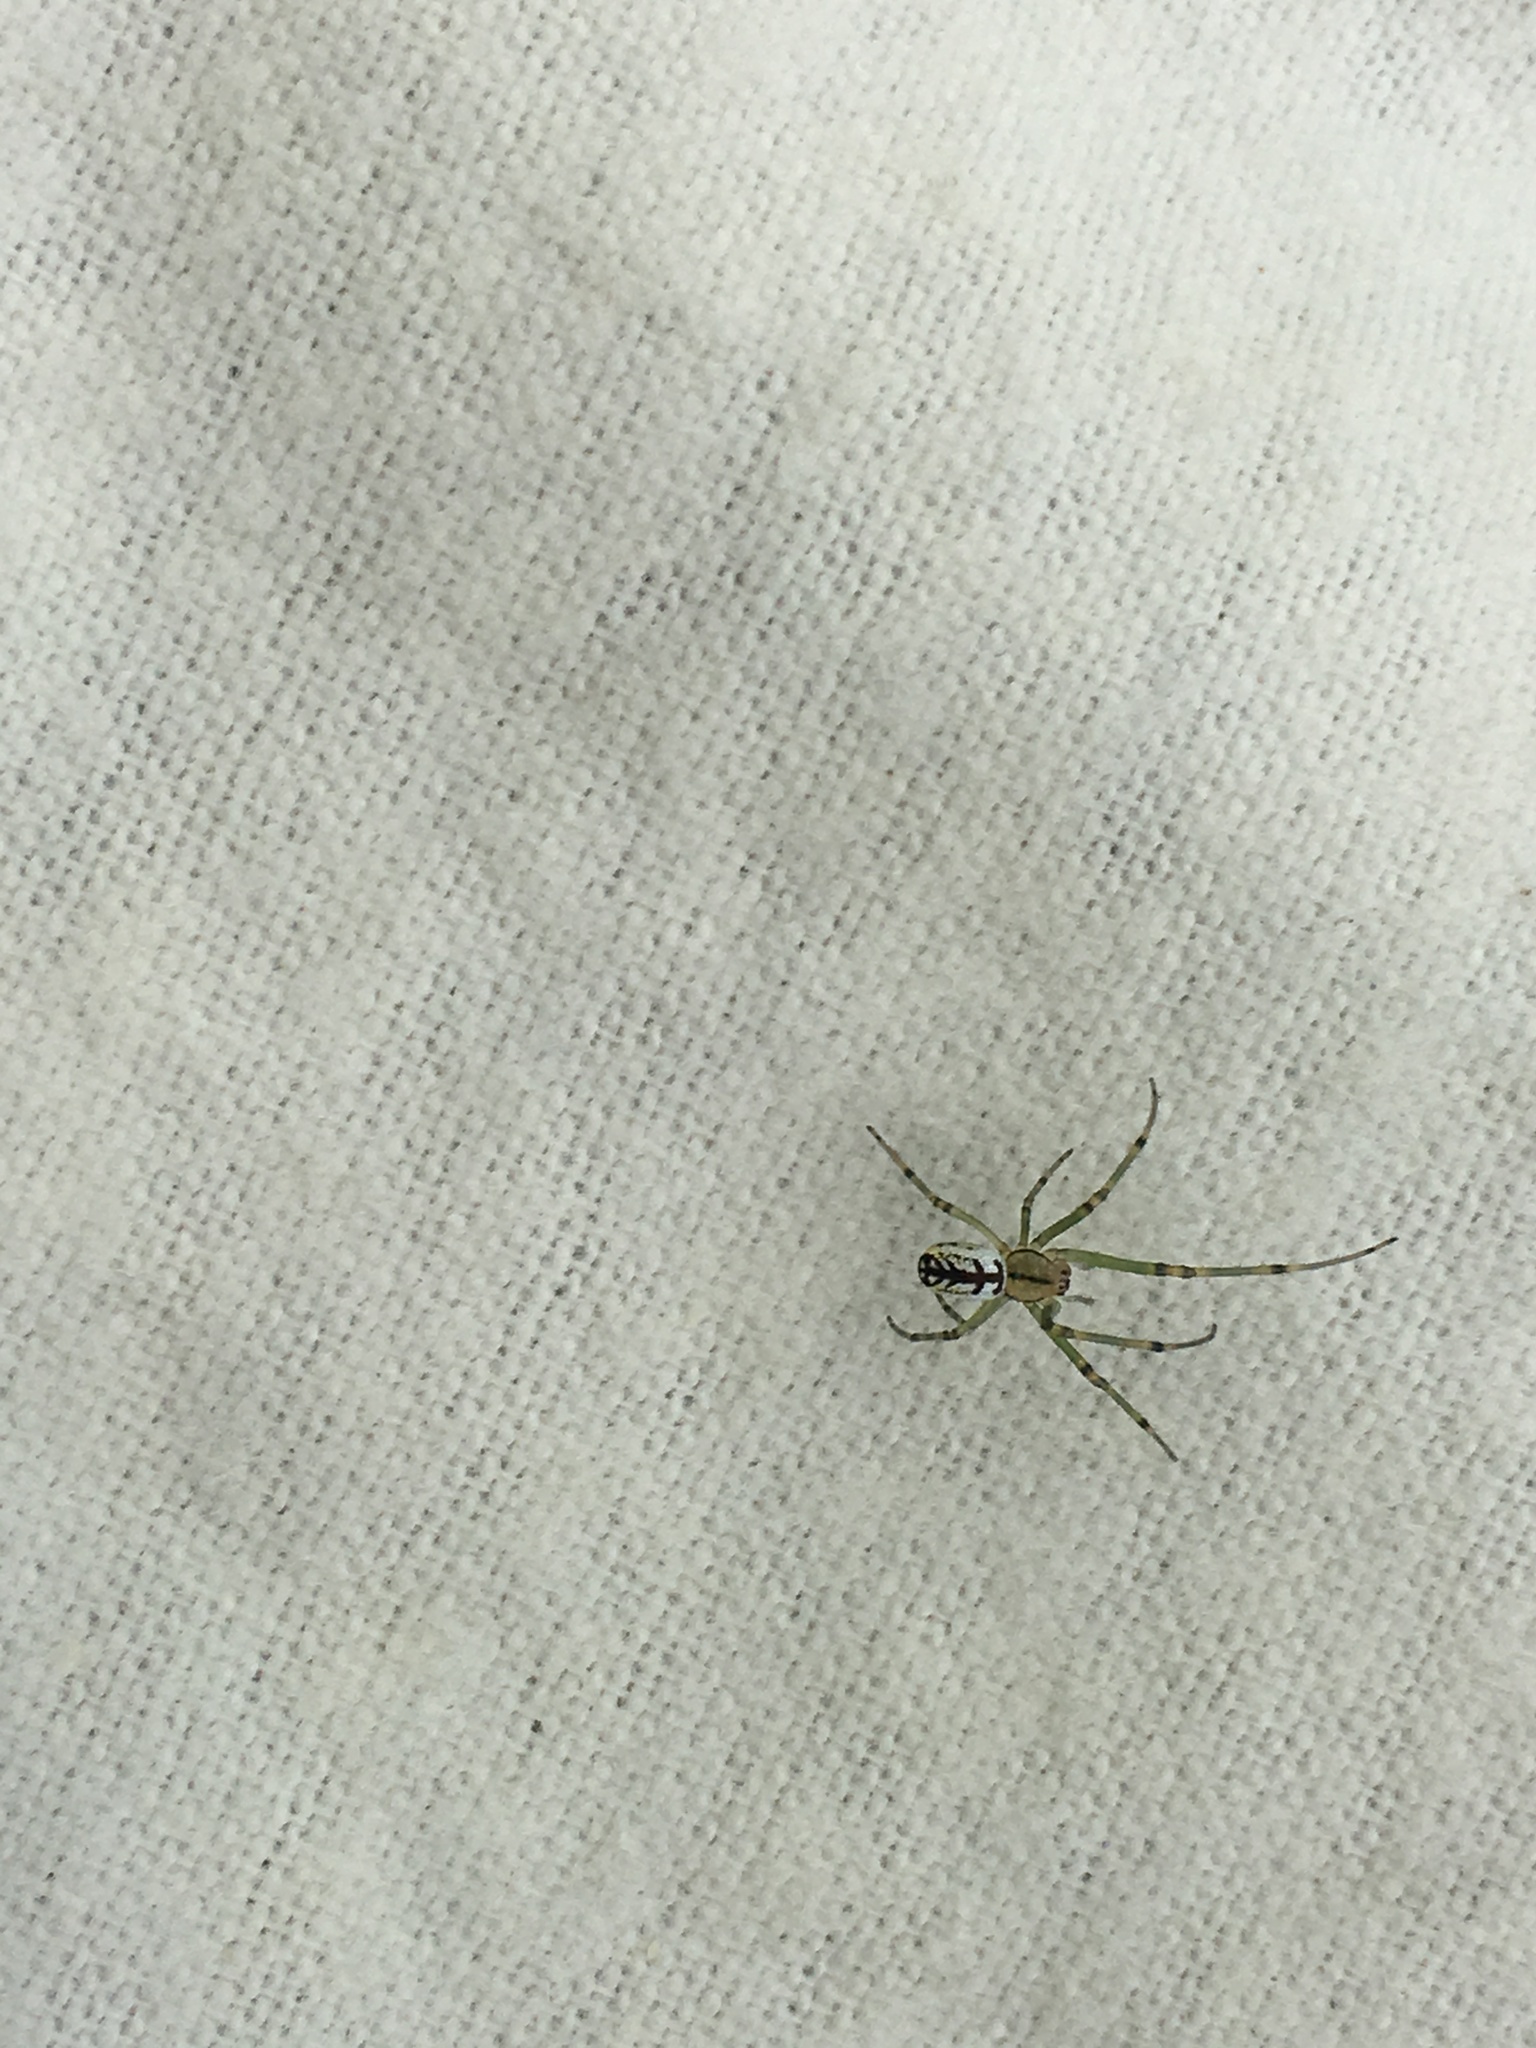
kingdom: Animalia
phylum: Arthropoda
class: Arachnida
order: Araneae
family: Tetragnathidae
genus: Leucauge
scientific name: Leucauge venusta
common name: Longjawed orb weavers
